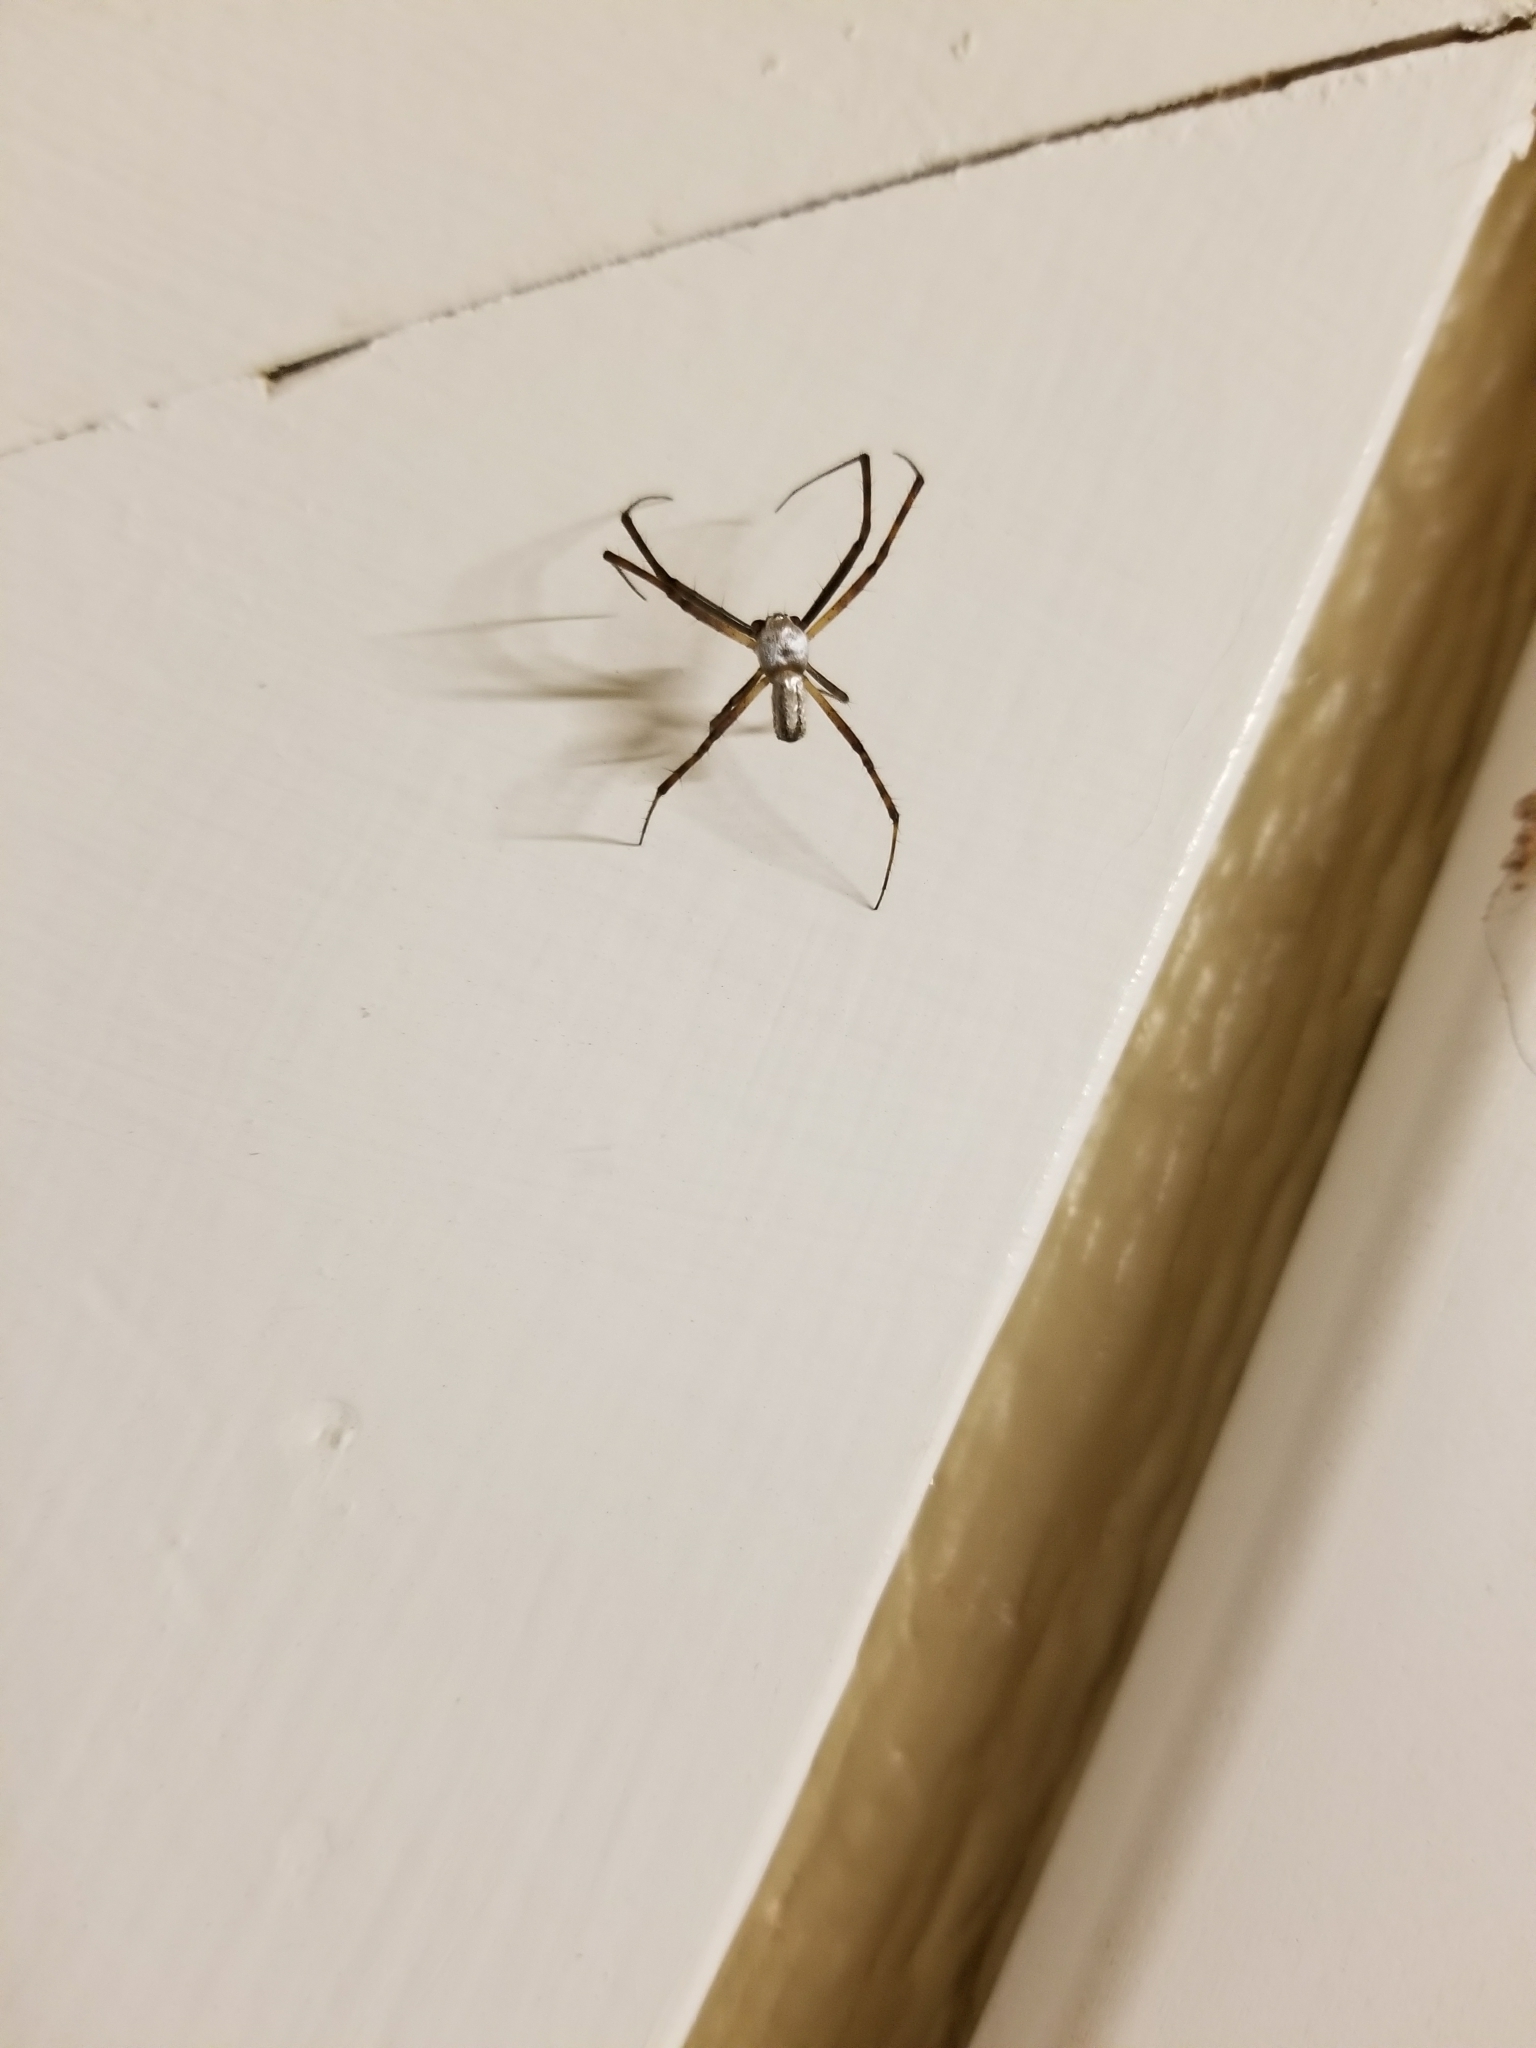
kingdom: Animalia
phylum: Arthropoda
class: Arachnida
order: Araneae
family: Araneidae
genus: Argiope
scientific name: Argiope trifasciata
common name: Banded garden spider
